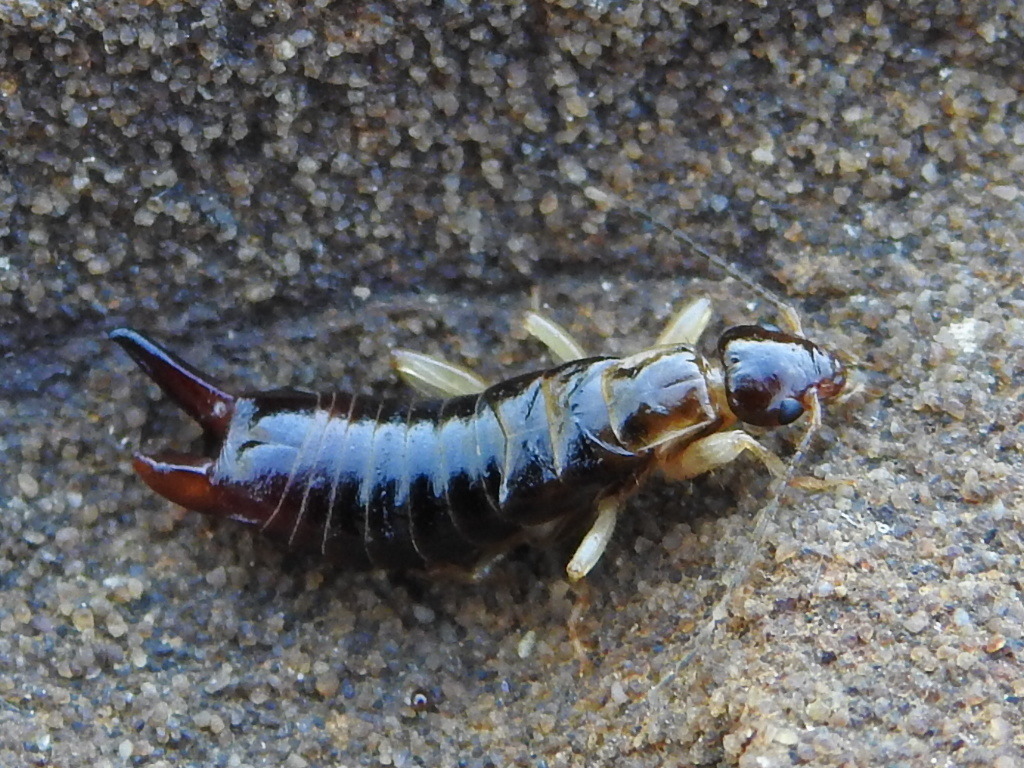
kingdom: Animalia
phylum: Arthropoda
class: Insecta
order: Dermaptera
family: Anisolabididae
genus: Euborellia
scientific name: Euborellia annulipes
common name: Ringlegged earwig
